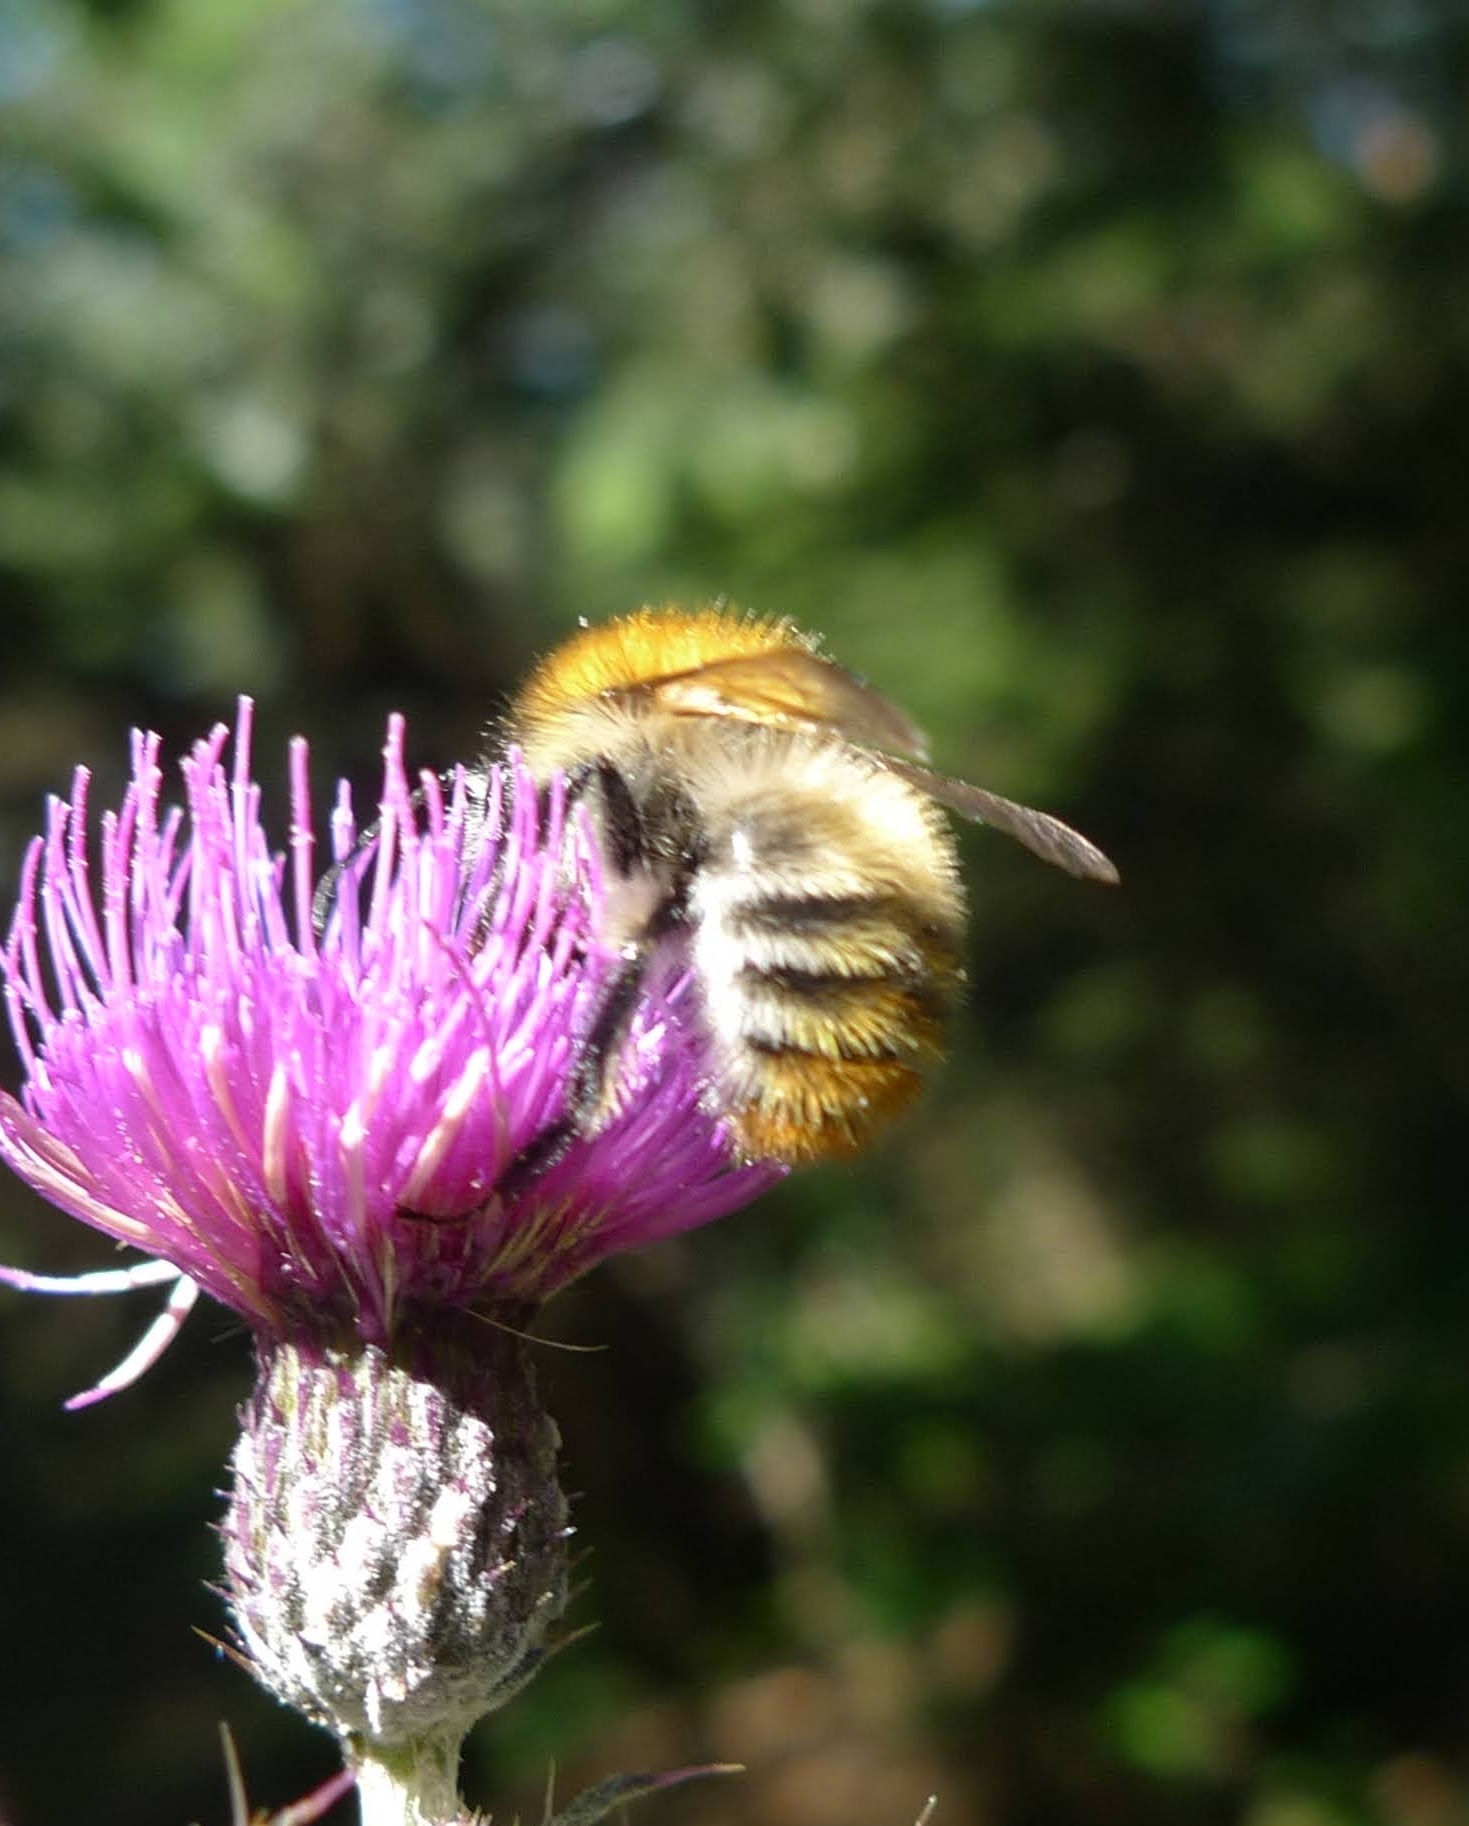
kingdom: Animalia
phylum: Arthropoda
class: Insecta
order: Hymenoptera
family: Apidae
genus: Bombus
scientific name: Bombus pascuorum
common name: Common carder bee
